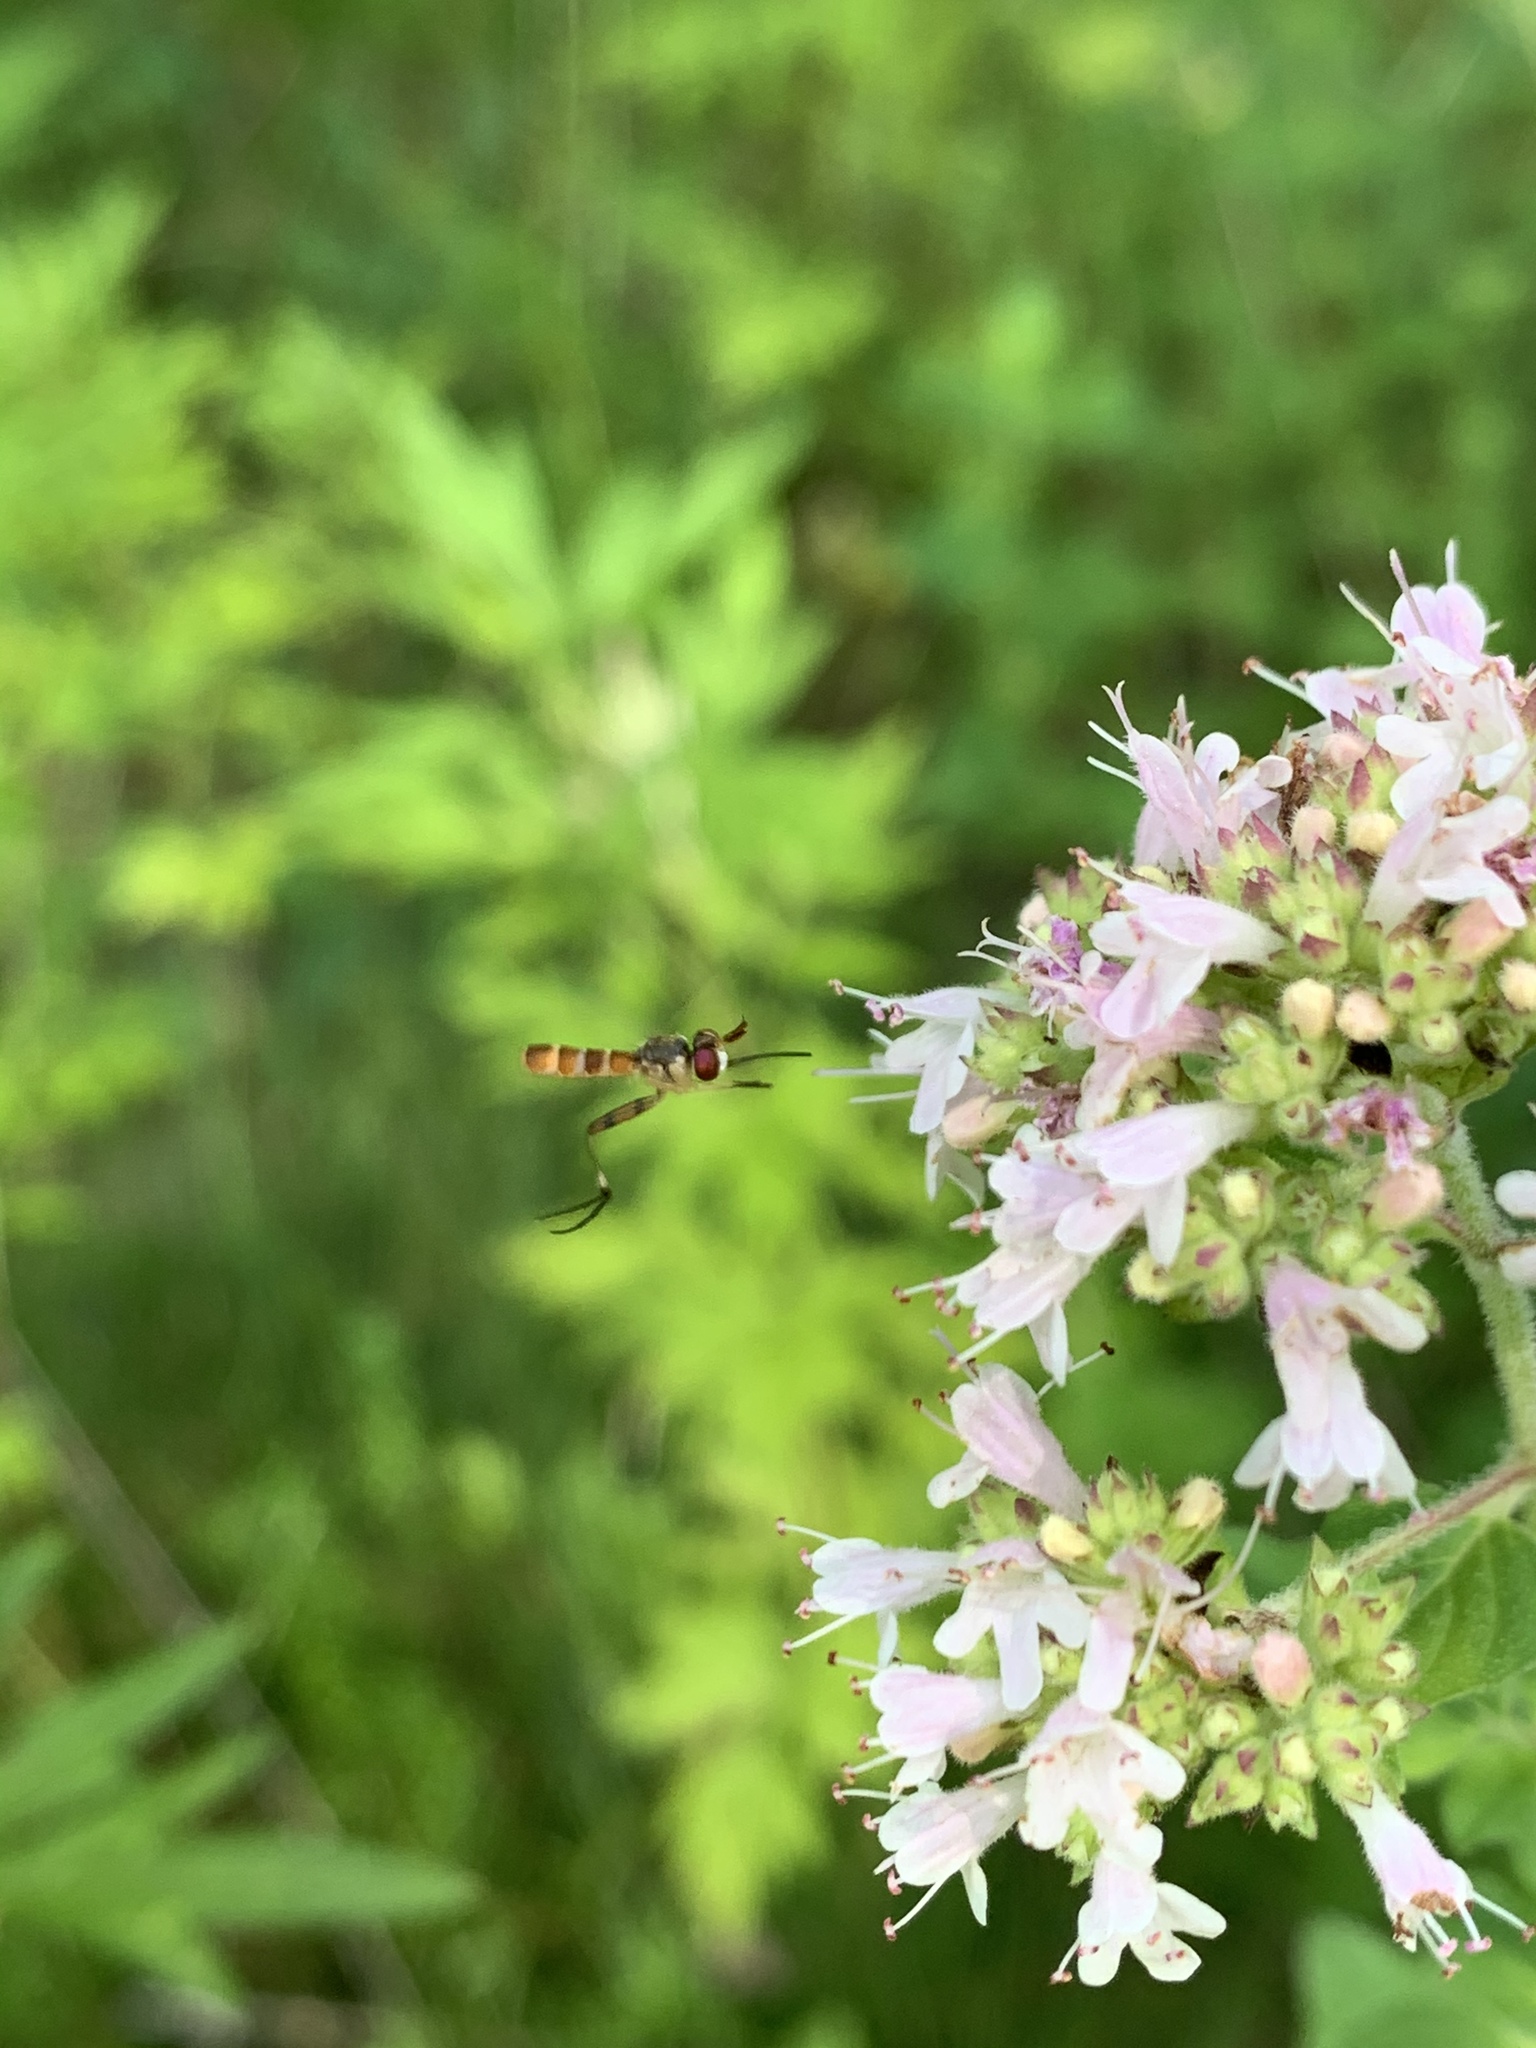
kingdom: Animalia
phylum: Arthropoda
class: Insecta
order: Diptera
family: Conopidae
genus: Stylogaster
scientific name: Stylogaster neglecta
